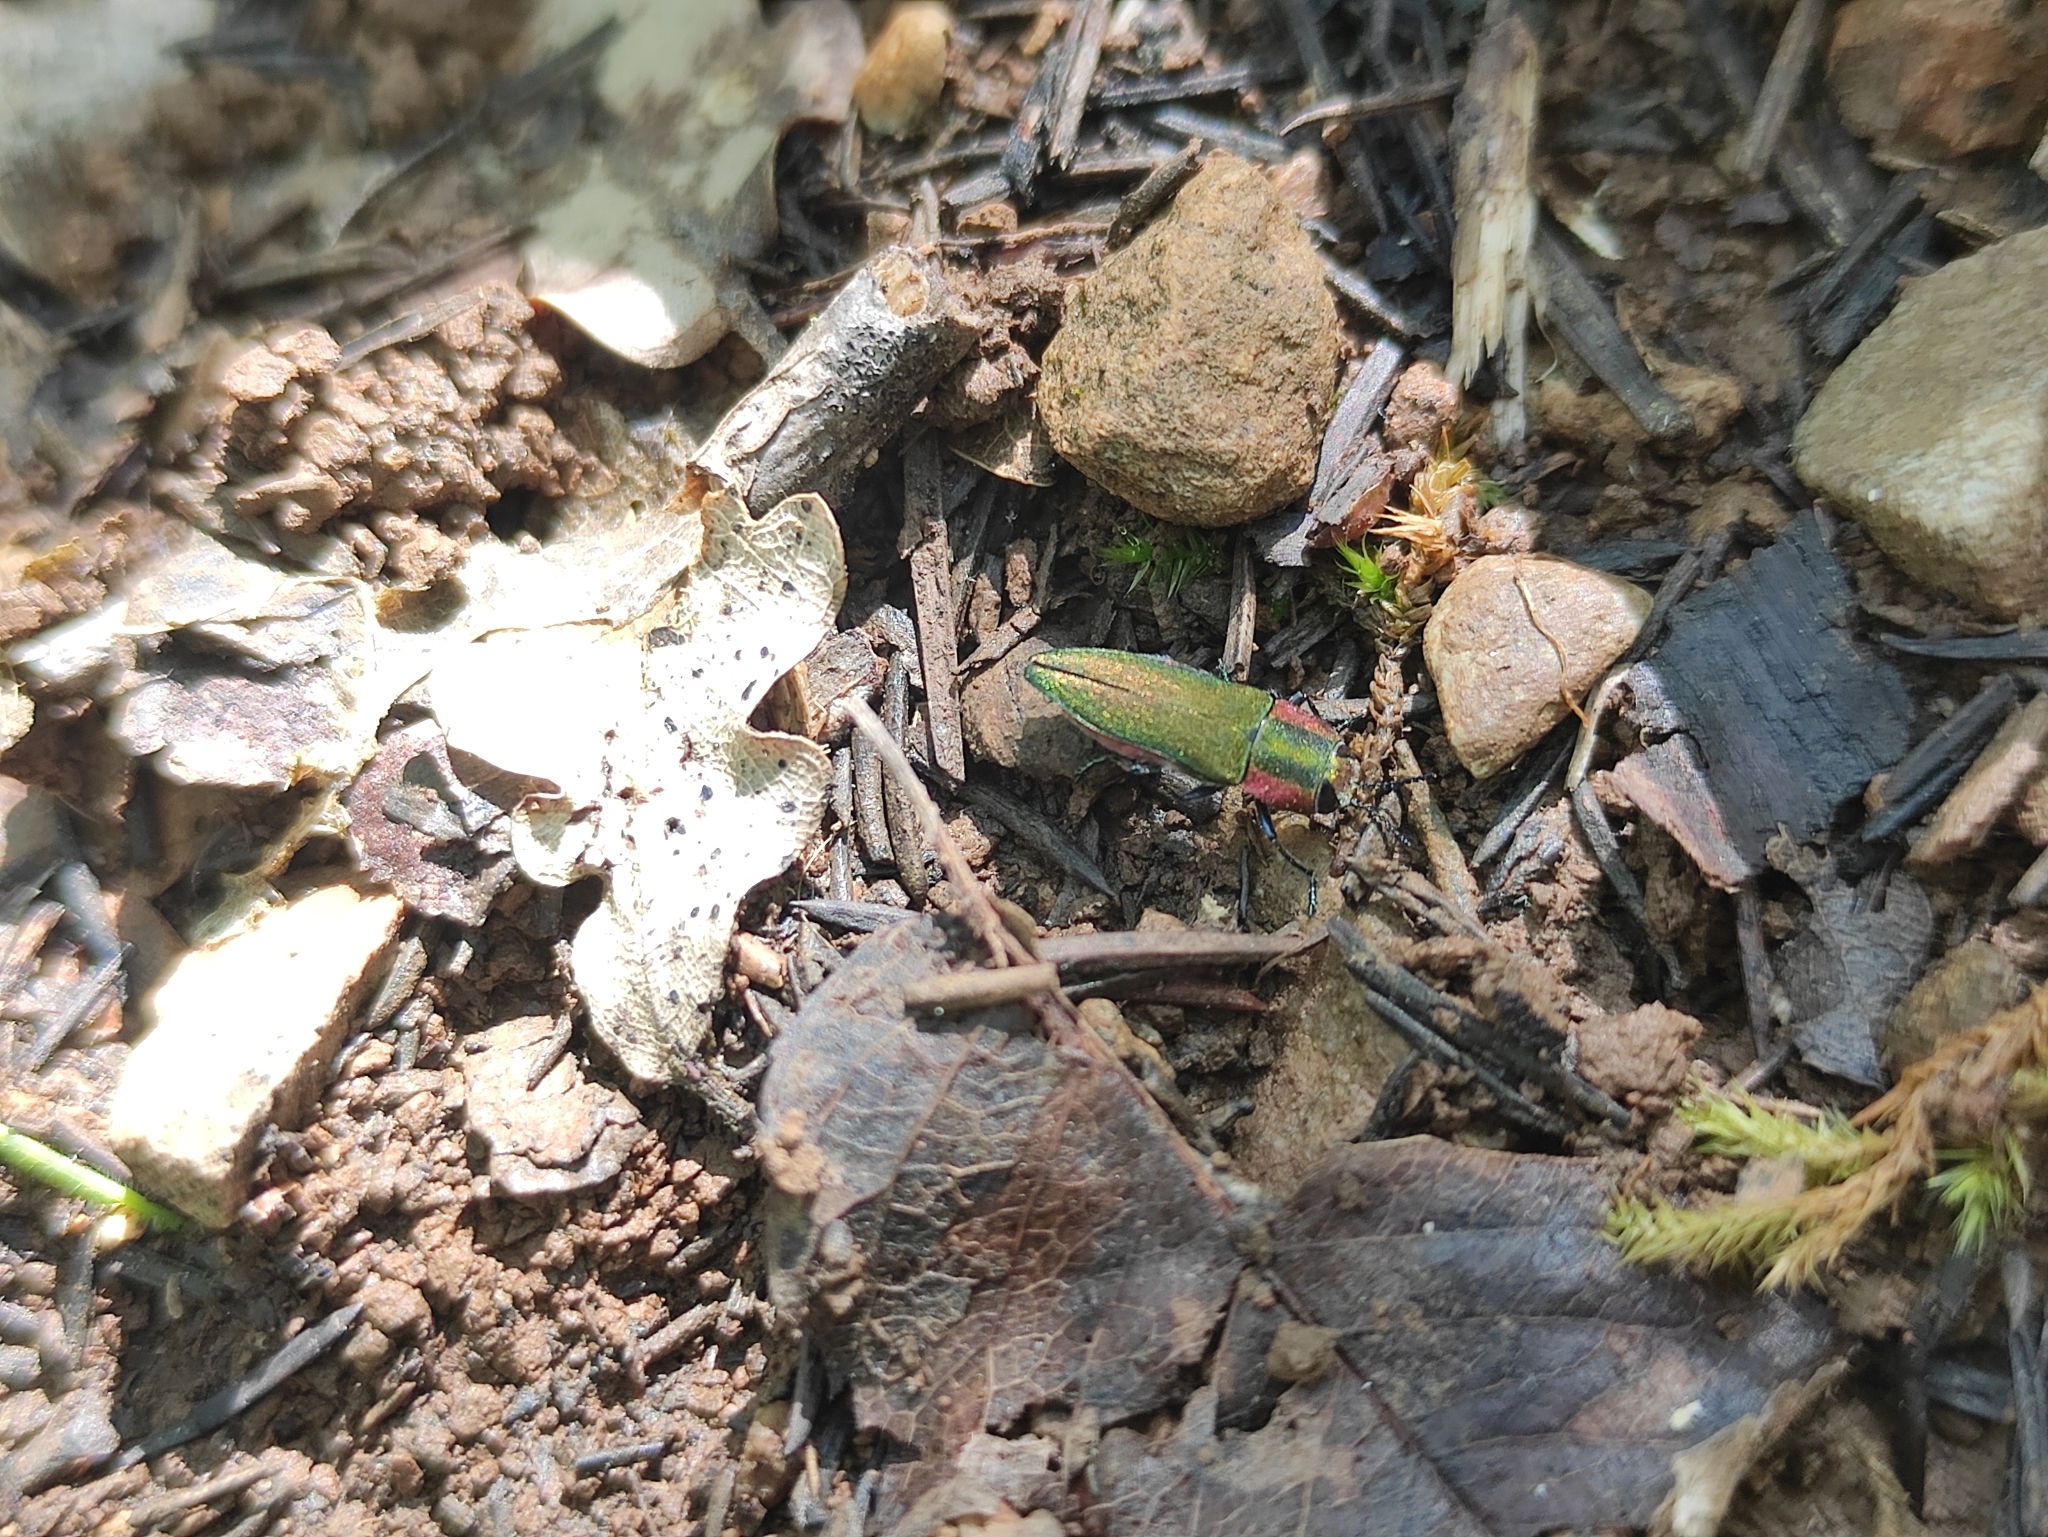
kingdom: Animalia
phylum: Arthropoda
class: Insecta
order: Coleoptera
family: Buprestidae
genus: Anthaxia
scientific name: Anthaxia hungarica
